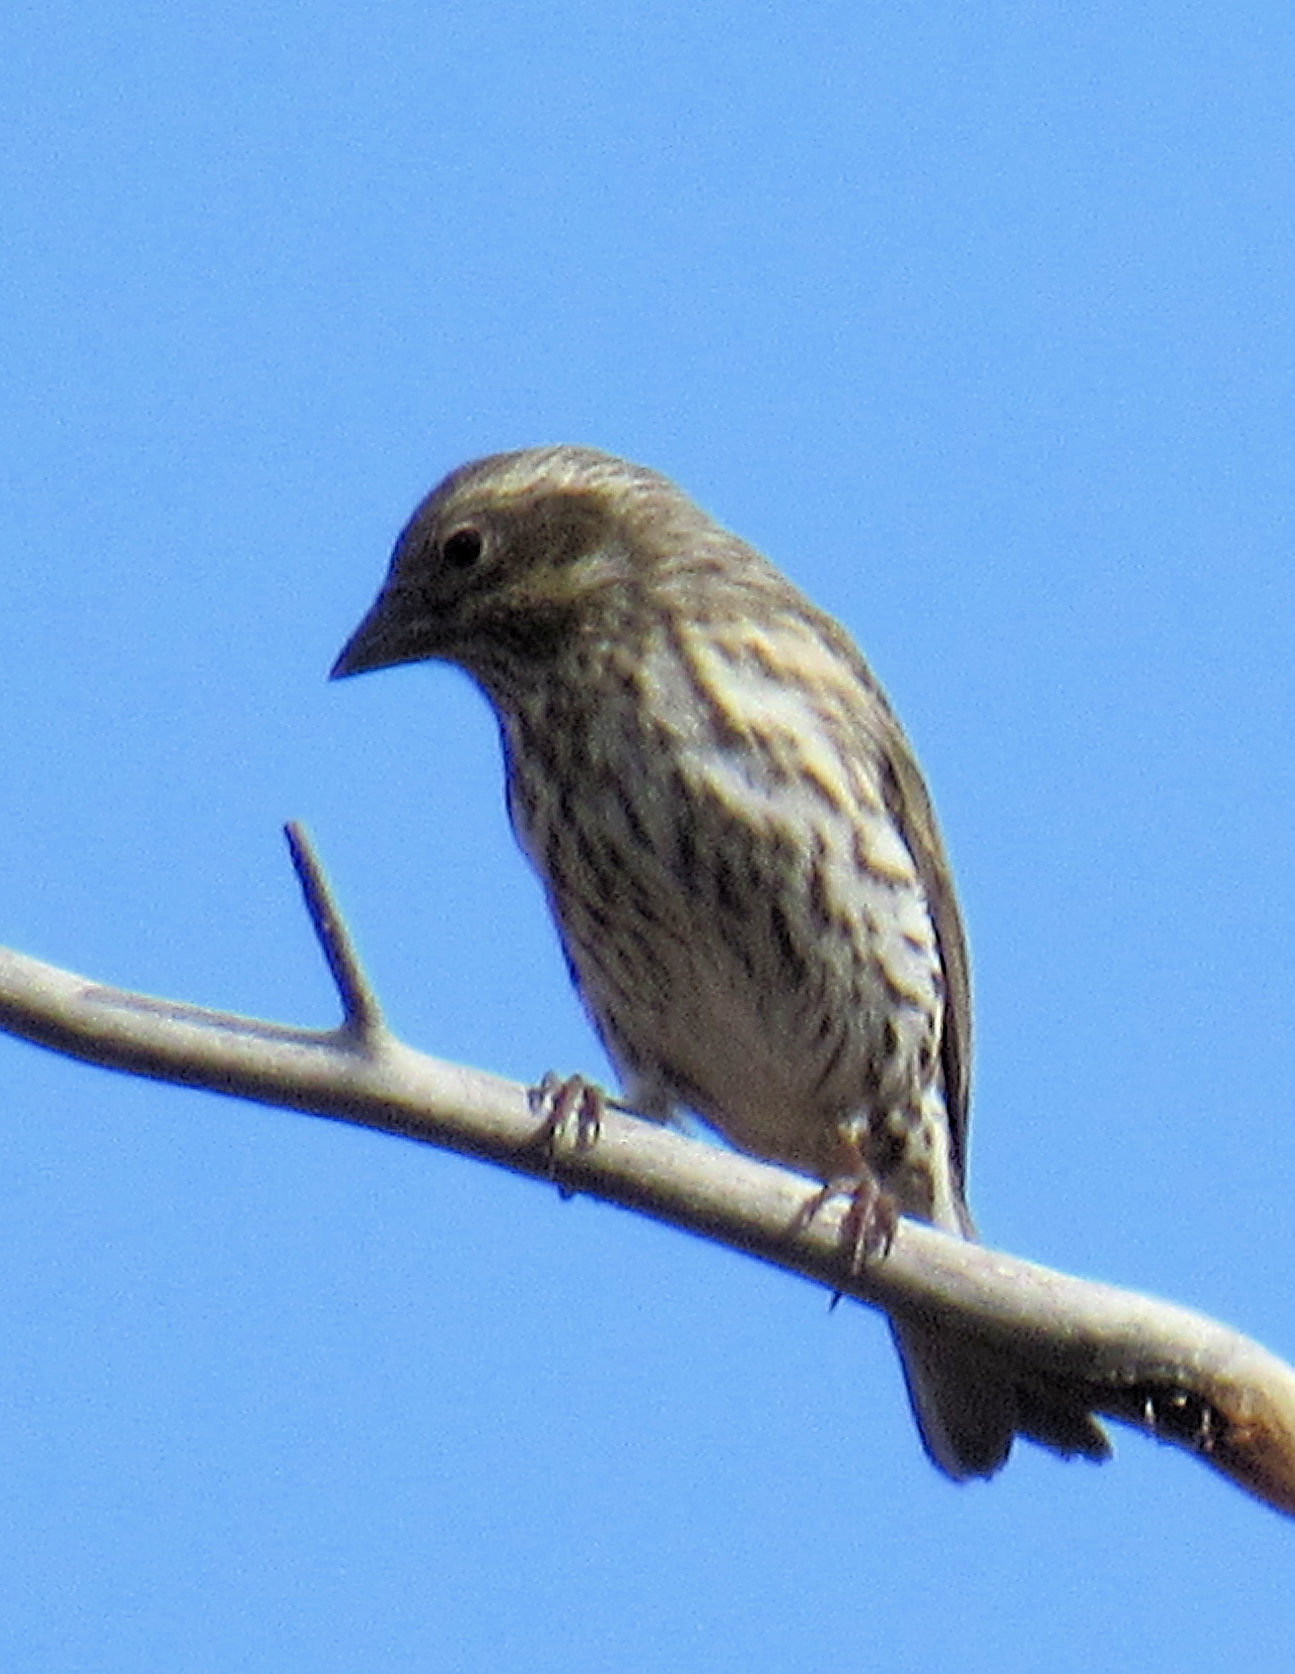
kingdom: Animalia
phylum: Chordata
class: Aves
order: Passeriformes
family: Fringillidae
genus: Haemorhous
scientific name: Haemorhous cassinii
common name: Cassin's finch
